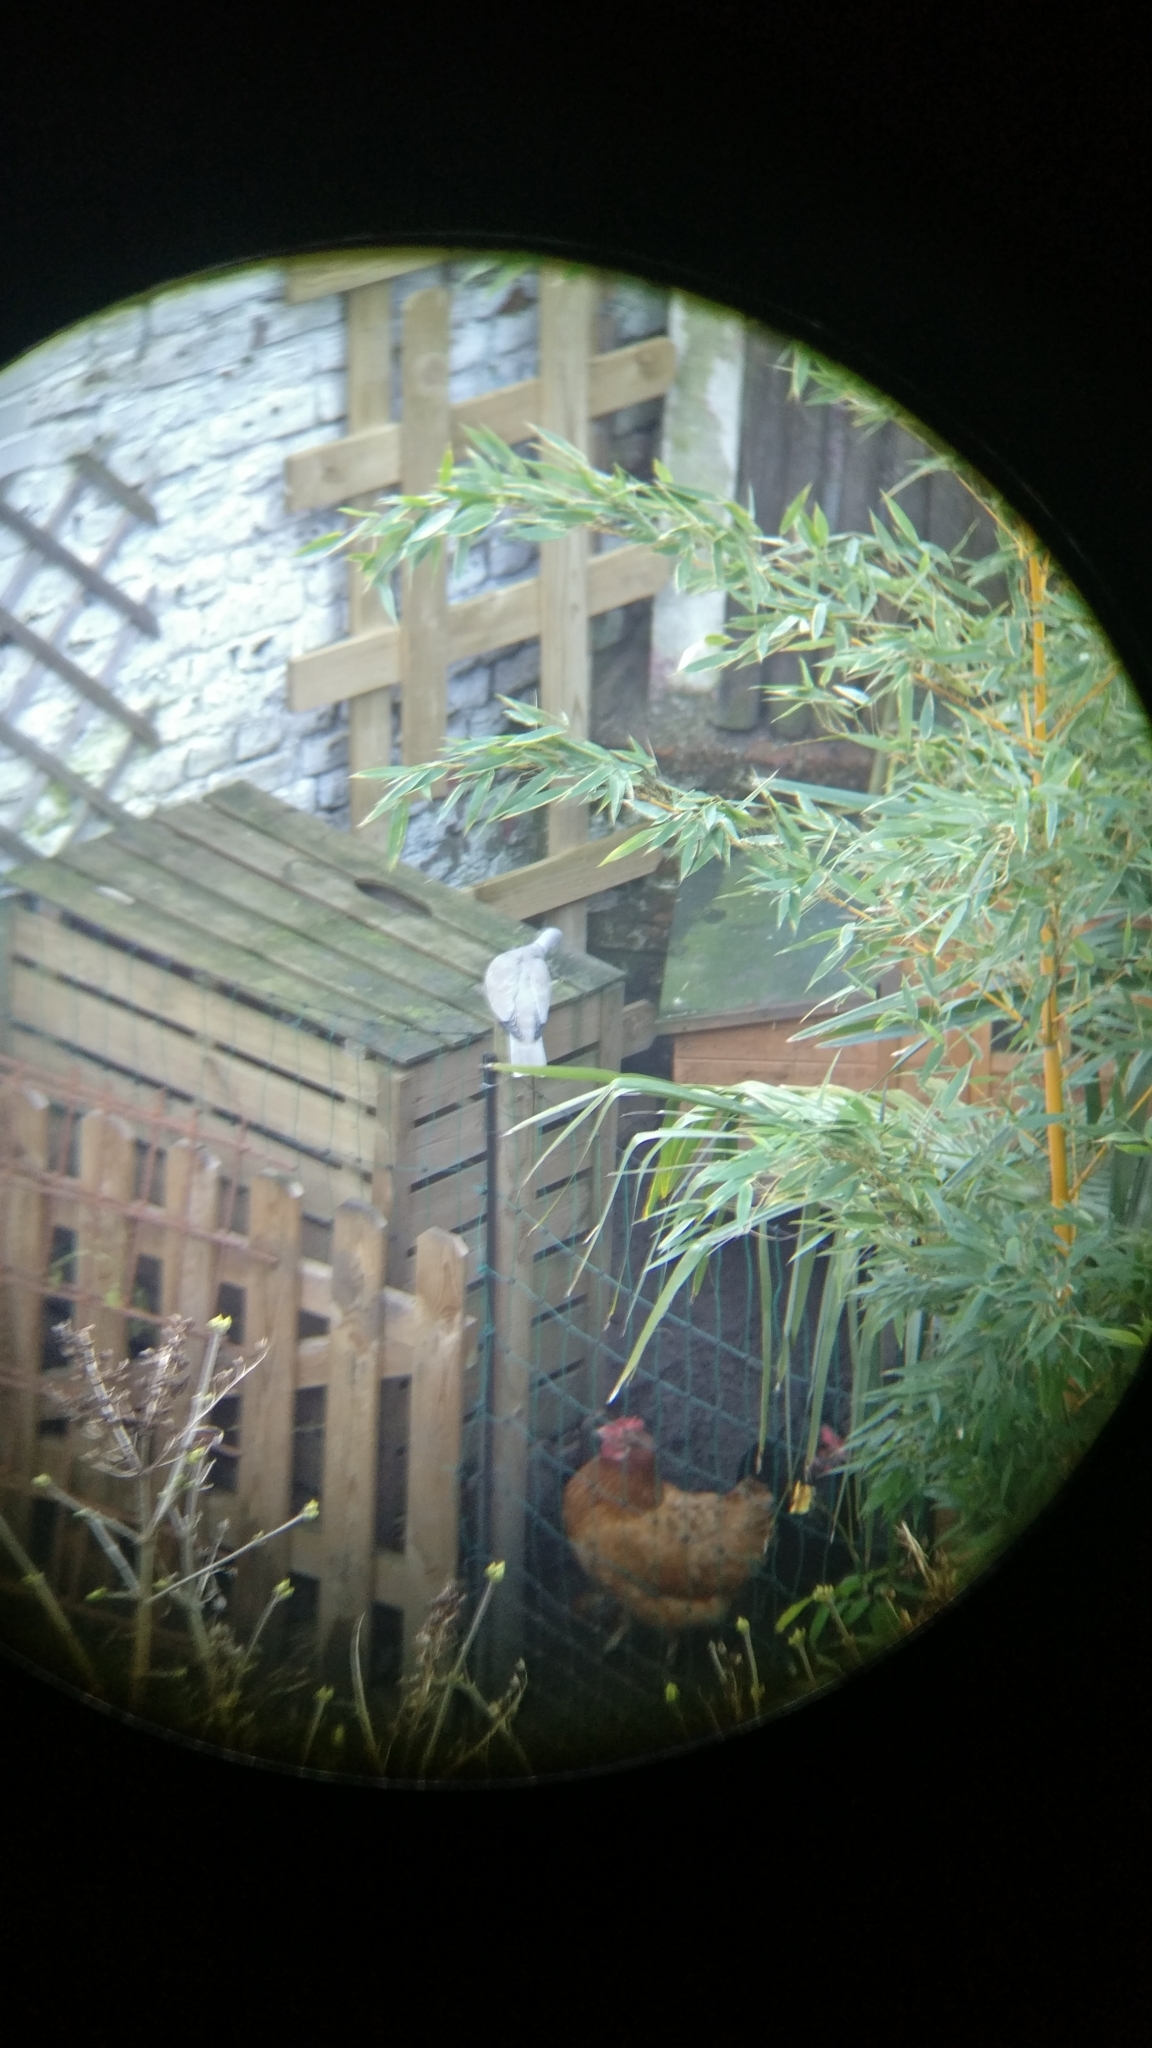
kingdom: Animalia
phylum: Chordata
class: Aves
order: Columbiformes
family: Columbidae
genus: Streptopelia
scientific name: Streptopelia decaocto
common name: Eurasian collared dove
